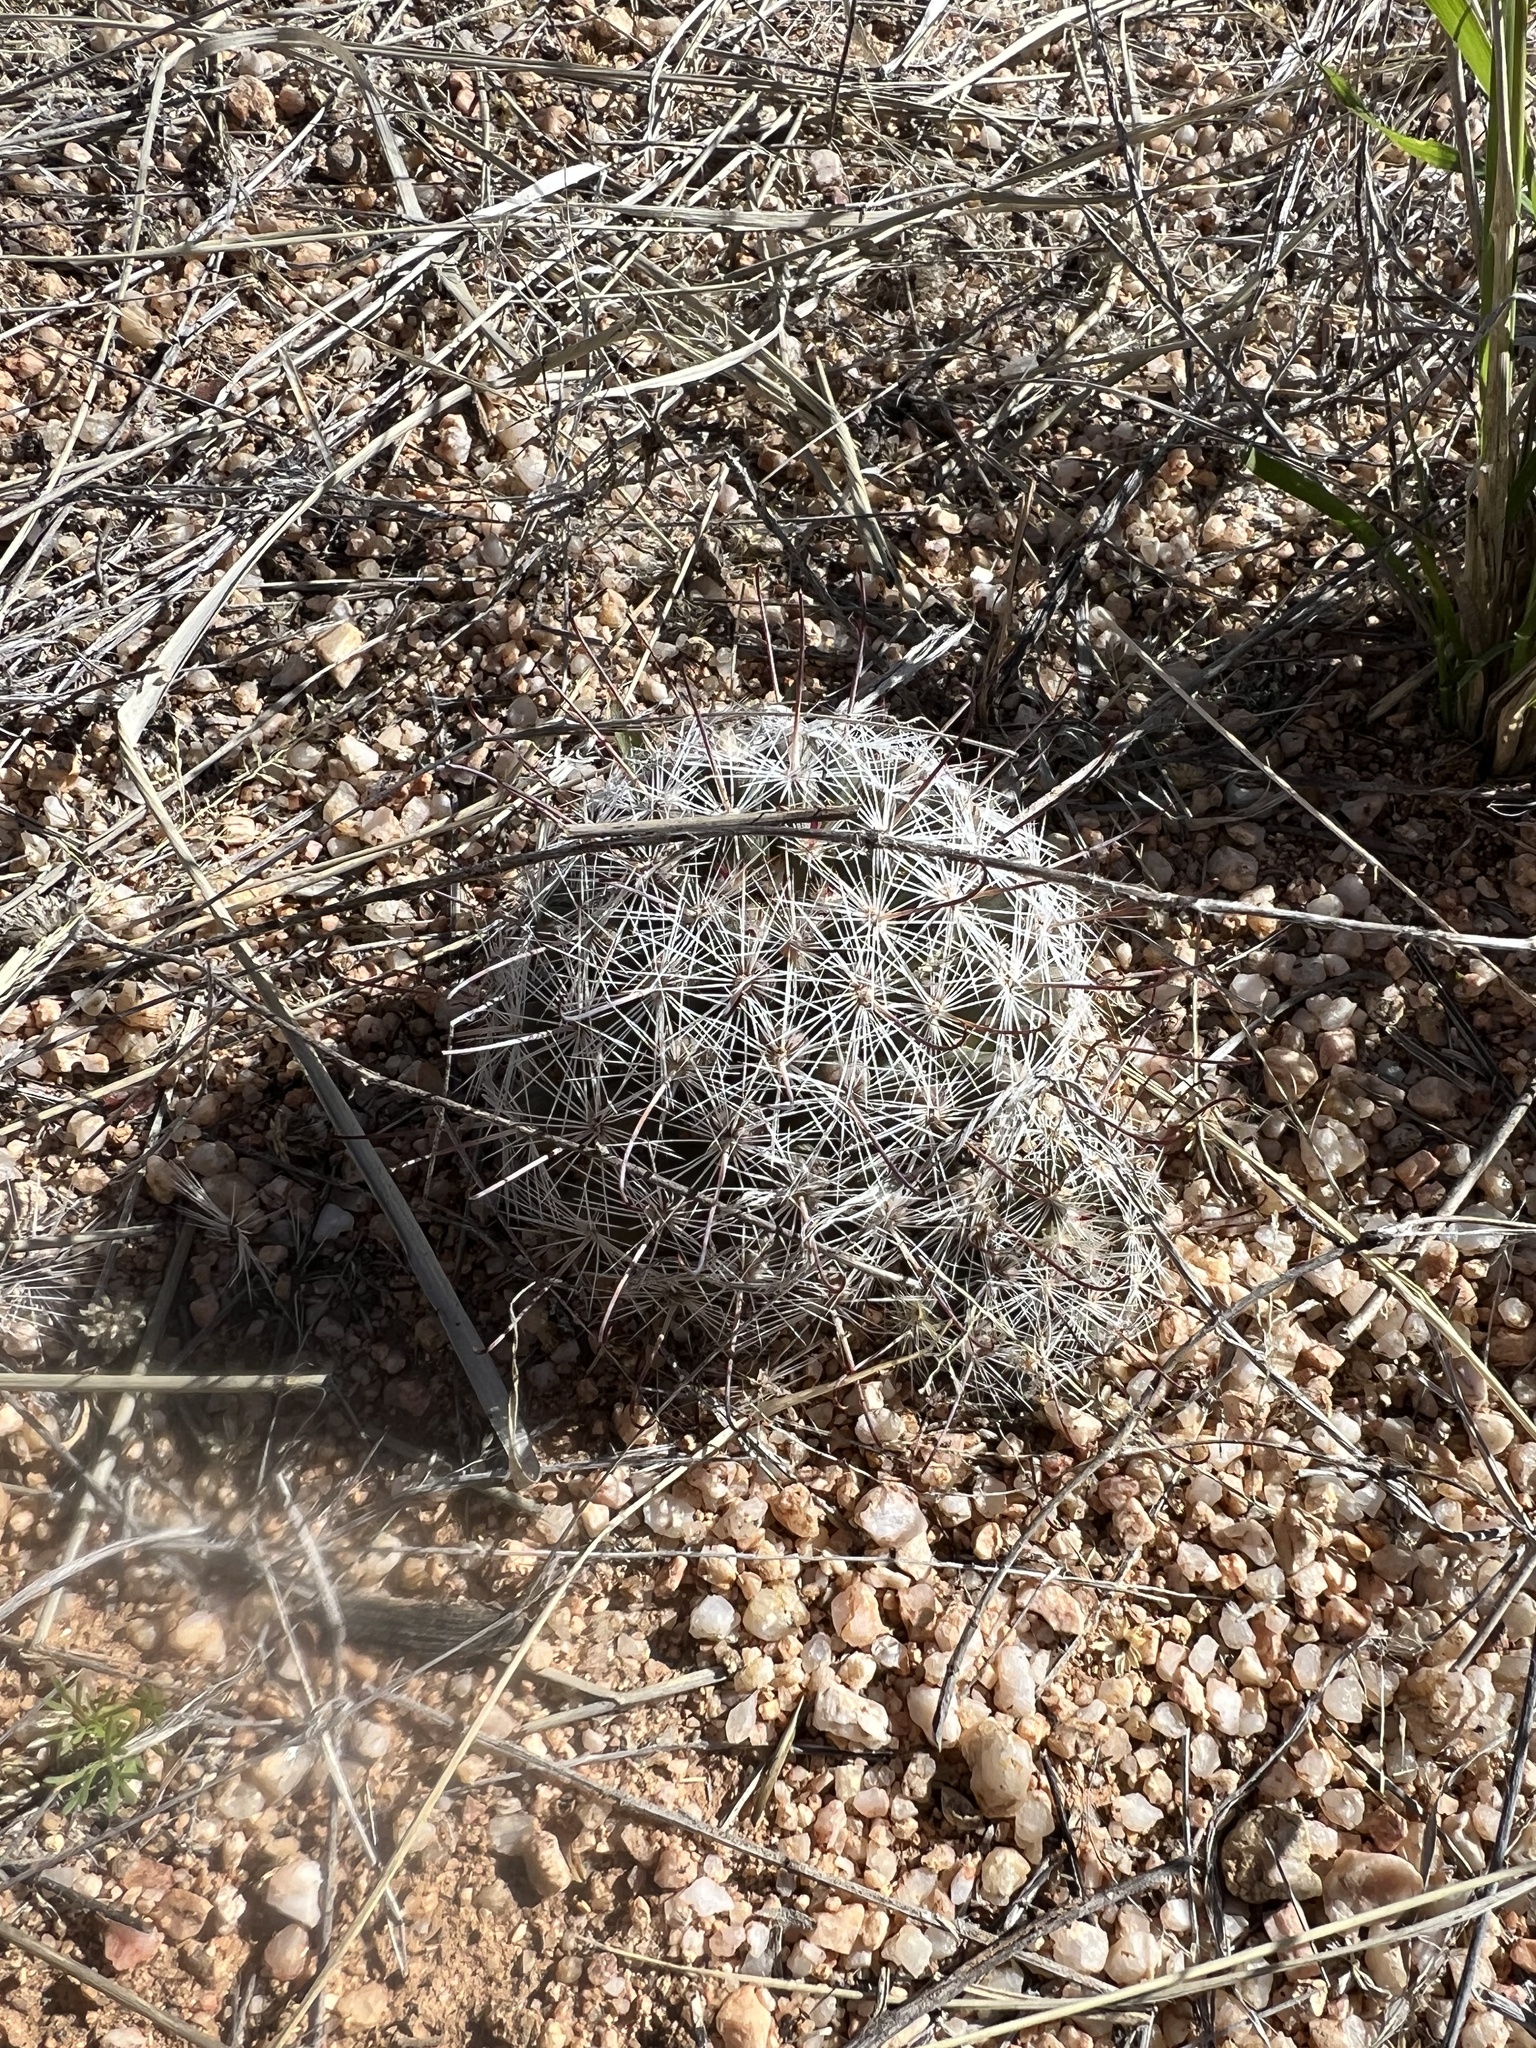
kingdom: Plantae
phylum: Tracheophyta
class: Magnoliopsida
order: Caryophyllales
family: Cactaceae
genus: Cochemiea
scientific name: Cochemiea grahamii
